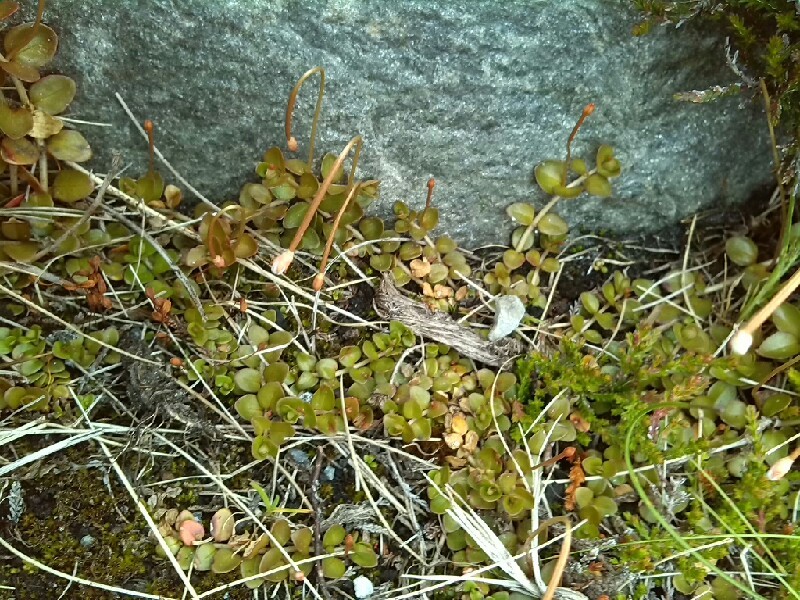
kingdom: Plantae
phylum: Tracheophyta
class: Magnoliopsida
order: Myrtales
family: Onagraceae
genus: Epilobium
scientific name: Epilobium brunnescens
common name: New zealand willowherb
